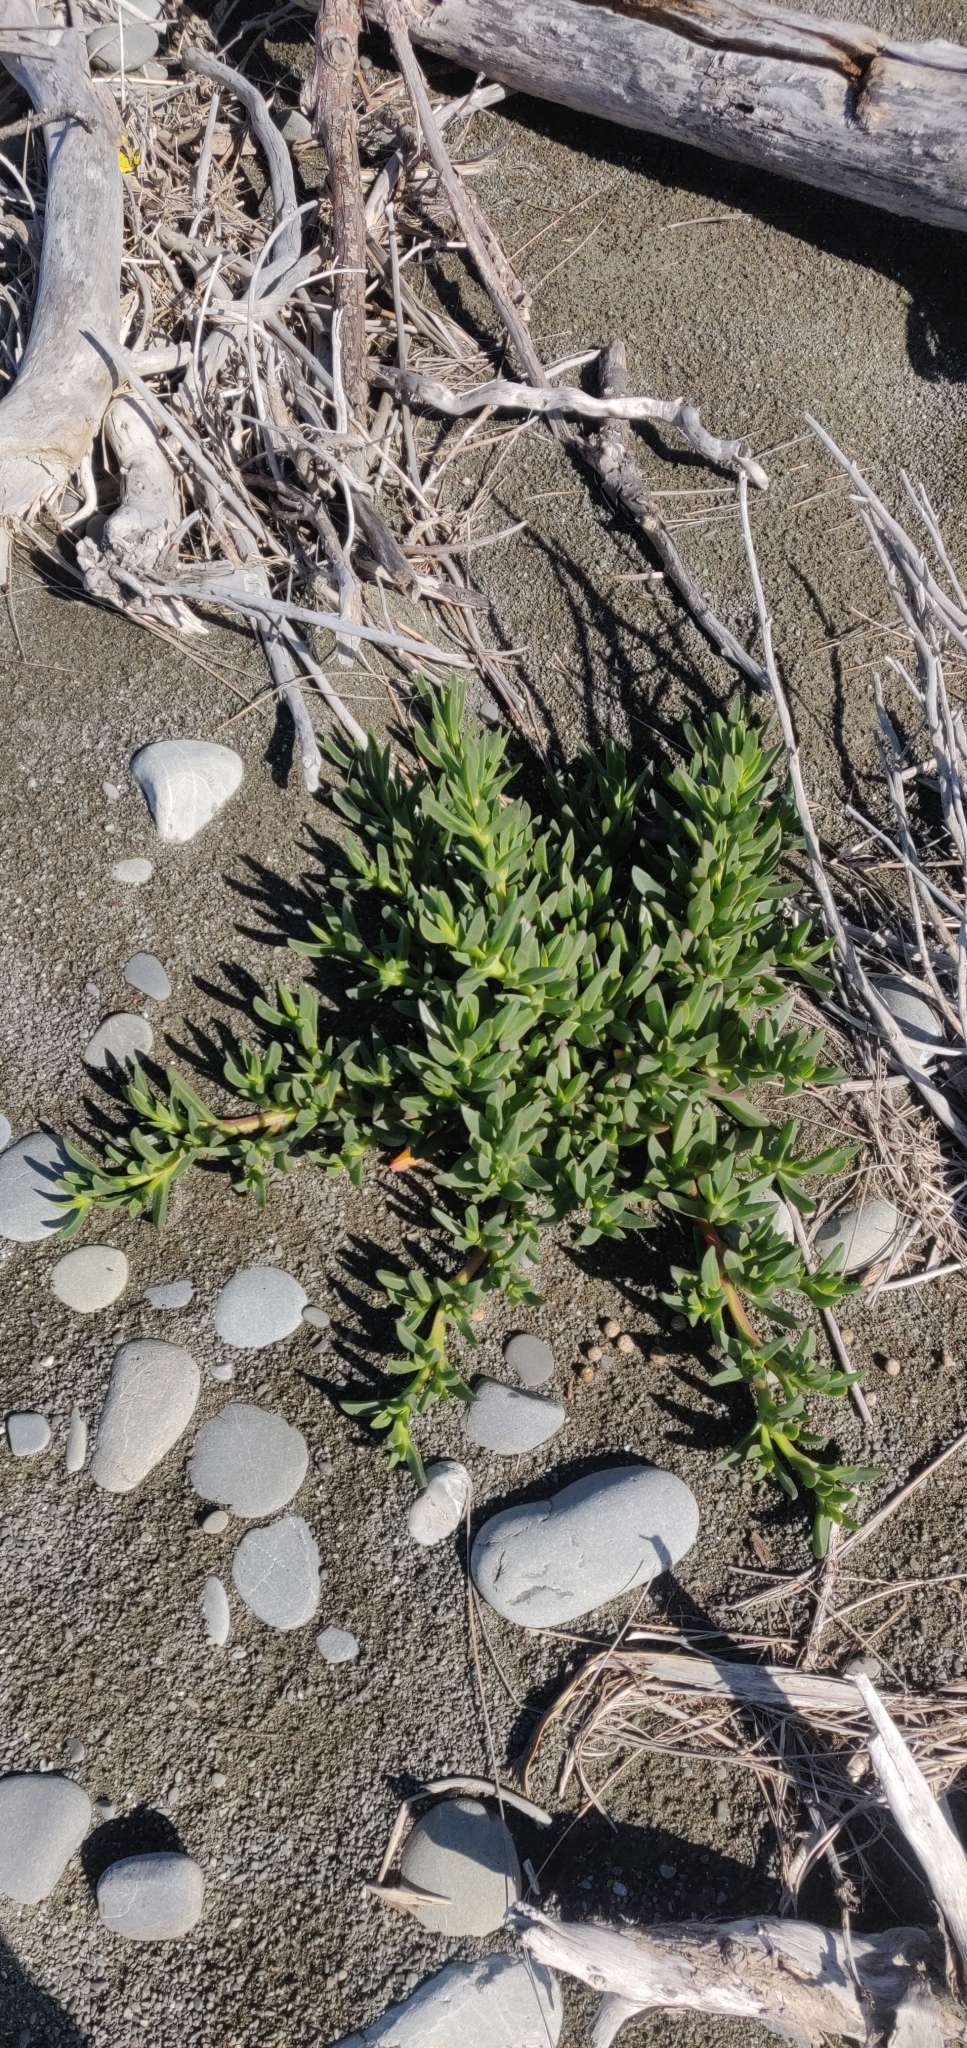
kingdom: Plantae
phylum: Tracheophyta
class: Magnoliopsida
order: Caryophyllales
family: Aizoaceae
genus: Carpobrotus
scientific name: Carpobrotus edulis
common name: Hottentot-fig
